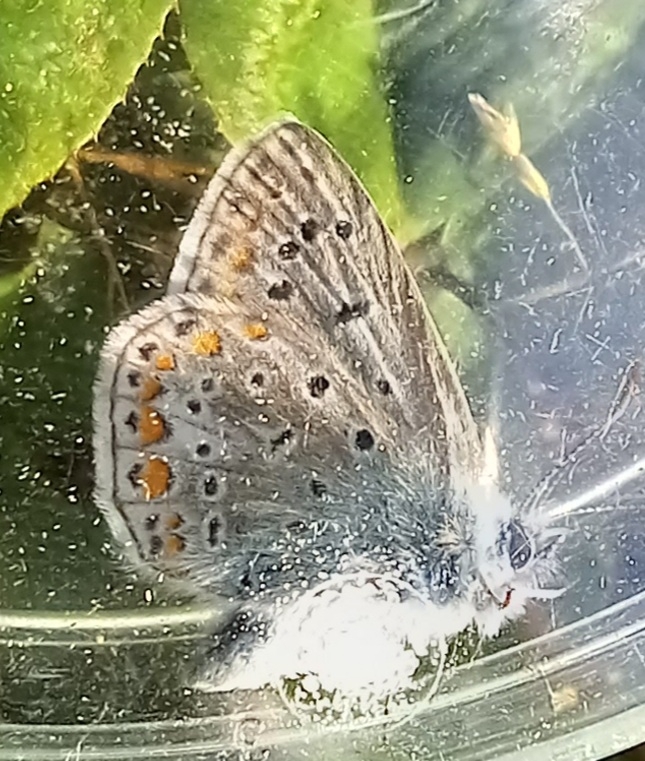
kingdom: Animalia
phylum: Arthropoda
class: Insecta
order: Lepidoptera
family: Lycaenidae
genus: Polyommatus
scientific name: Polyommatus icarus
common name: Common blue
